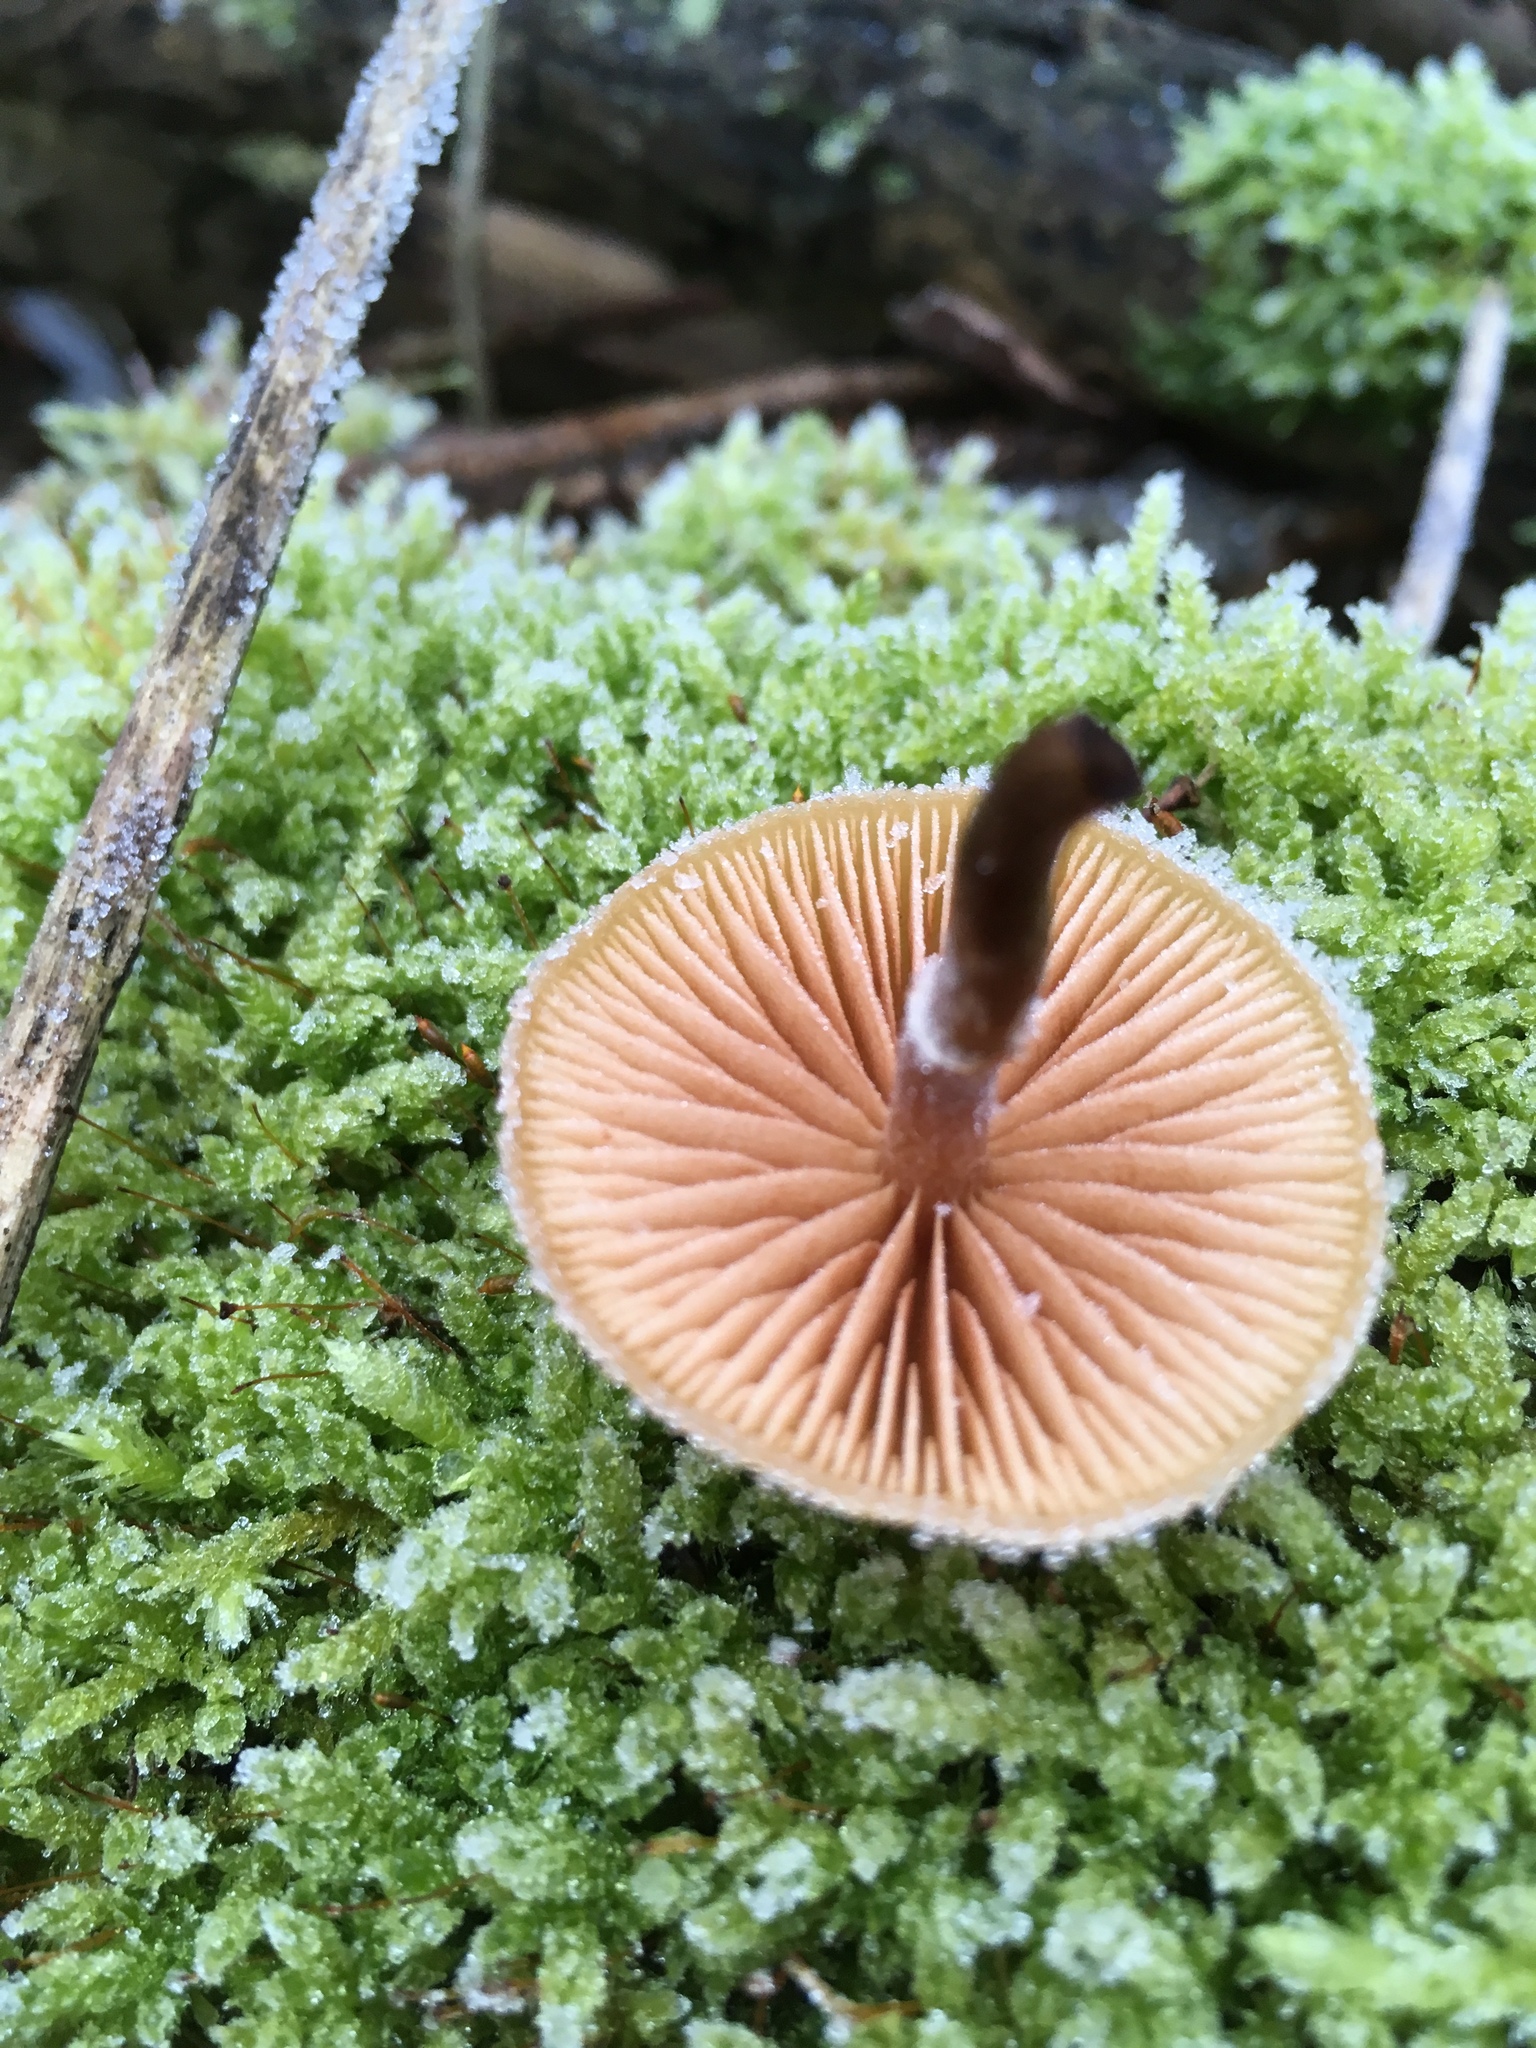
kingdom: Fungi
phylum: Basidiomycota
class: Agaricomycetes
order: Agaricales
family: Hymenogastraceae
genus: Galerina
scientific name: Galerina marginata
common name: Funeral bell
